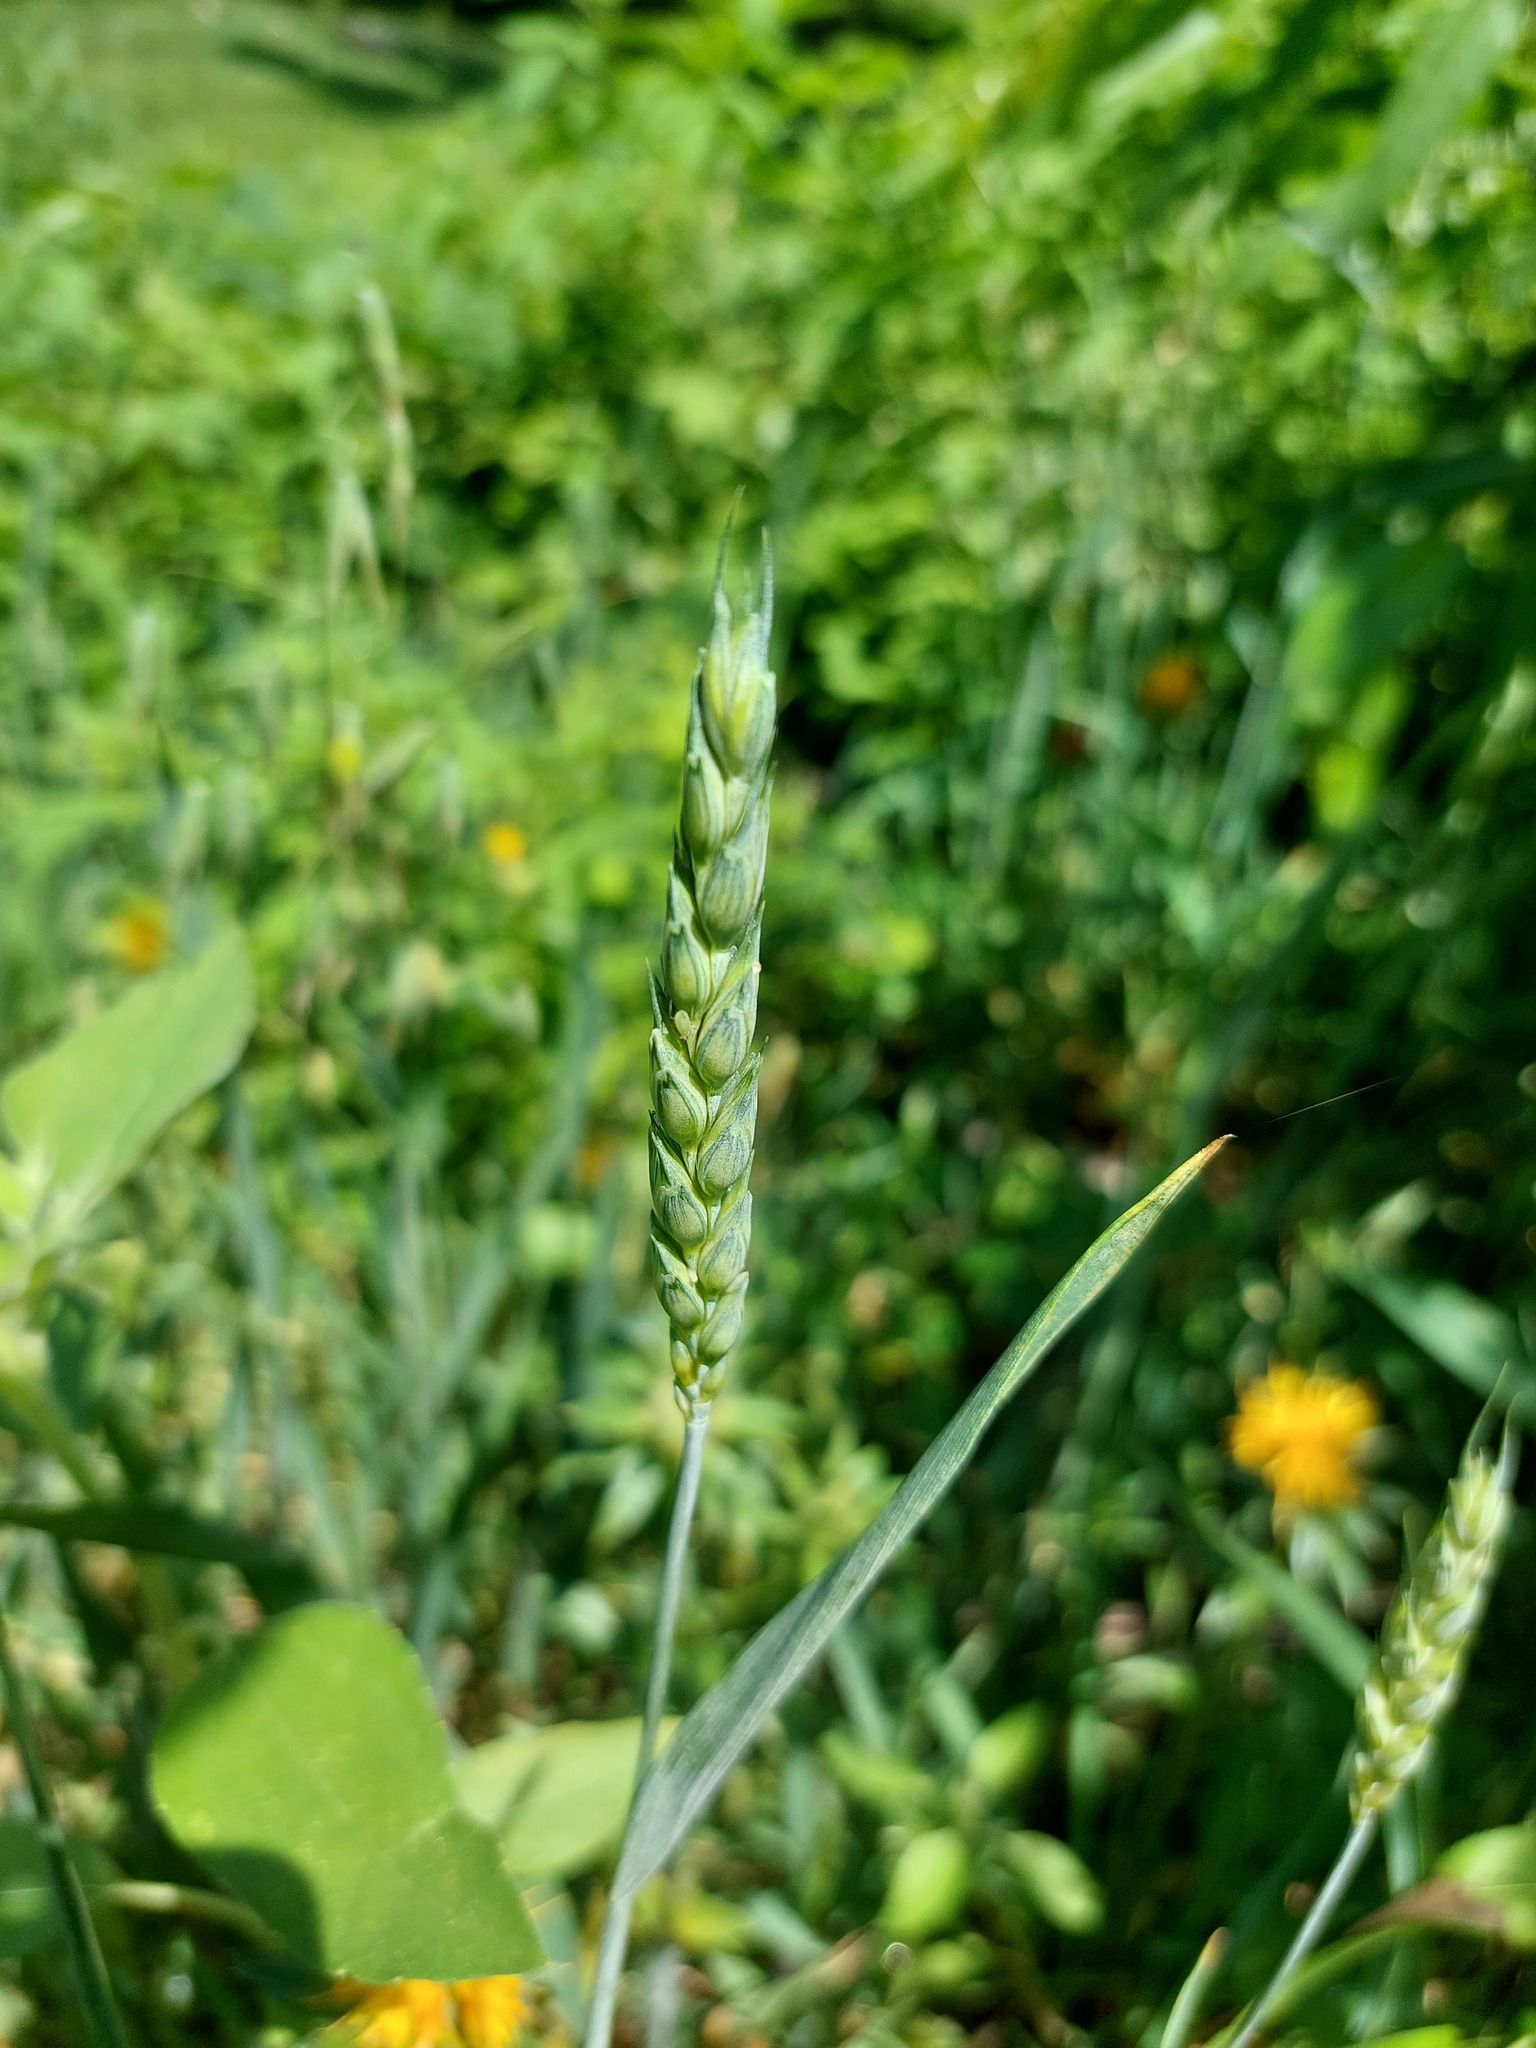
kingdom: Plantae
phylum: Tracheophyta
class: Liliopsida
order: Poales
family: Poaceae
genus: Triticum
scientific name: Triticum aestivum
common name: Common wheat
